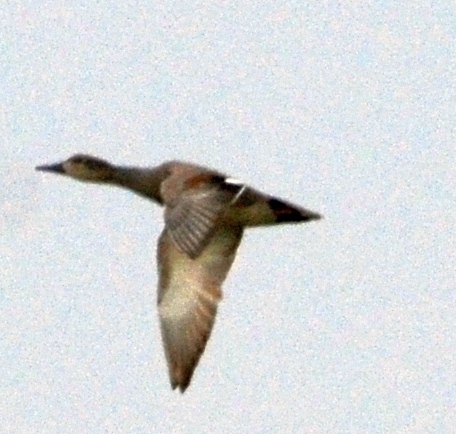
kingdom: Animalia
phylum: Chordata
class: Aves
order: Anseriformes
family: Anatidae
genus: Mareca
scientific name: Mareca strepera
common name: Gadwall
